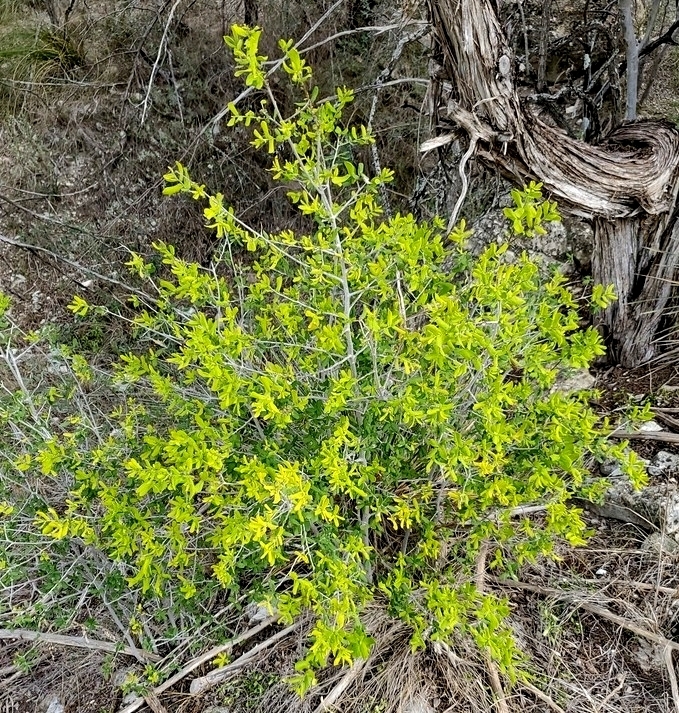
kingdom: Plantae
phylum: Tracheophyta
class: Magnoliopsida
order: Ericales
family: Ebenaceae
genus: Diospyros
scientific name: Diospyros texana
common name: Texas persimmon
